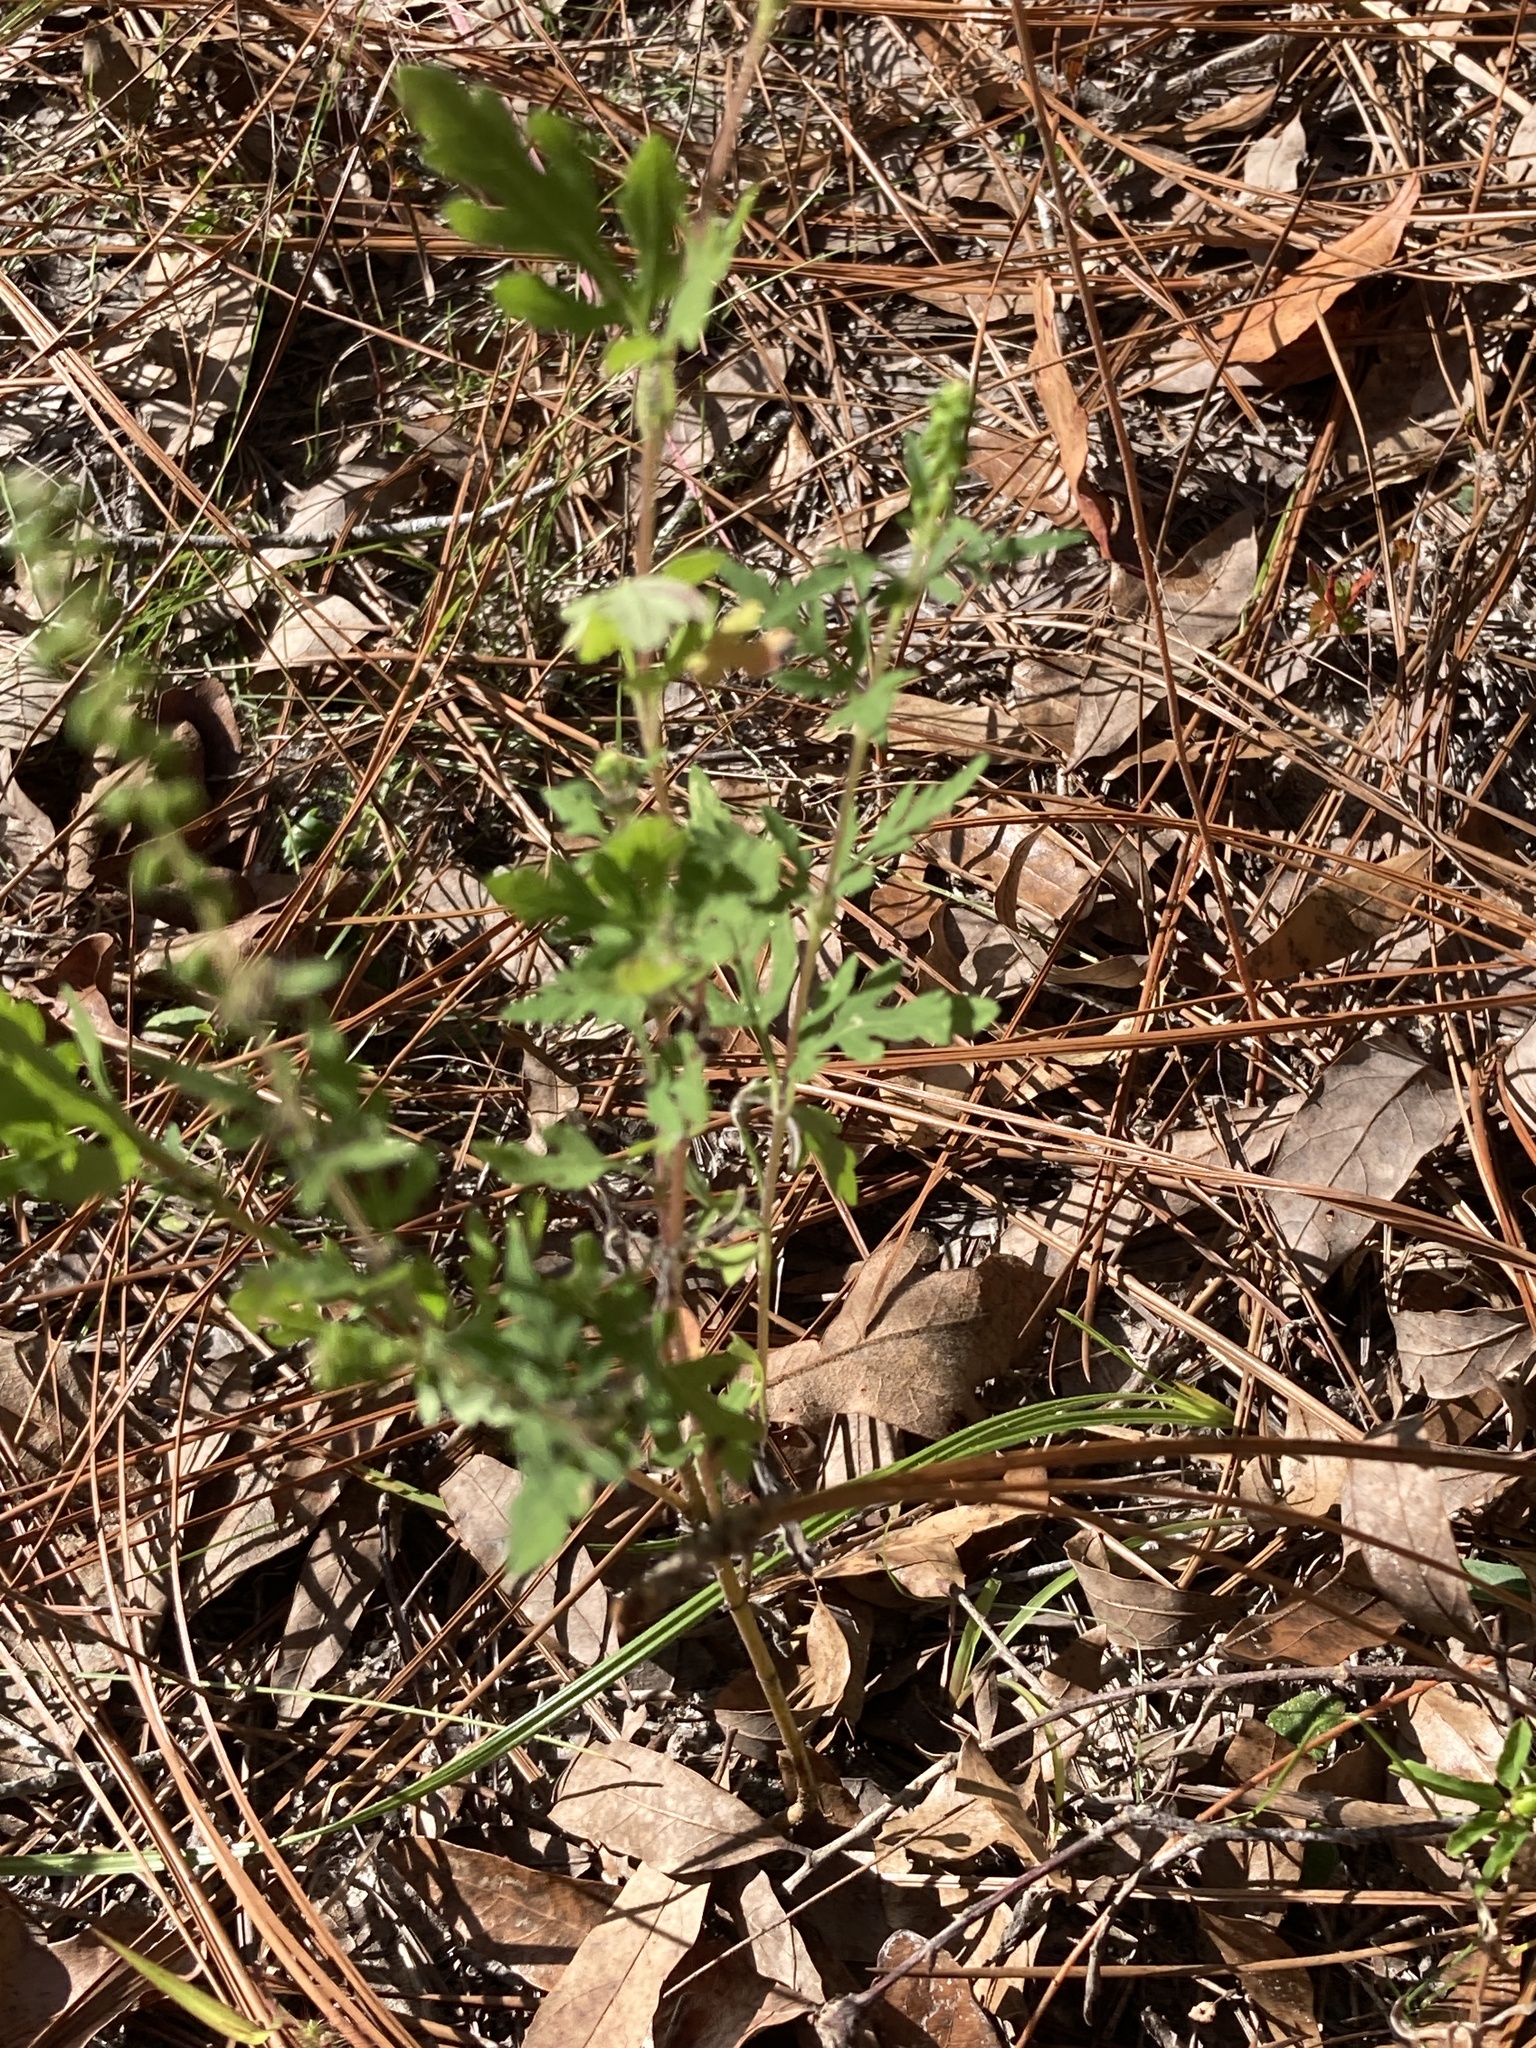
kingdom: Plantae
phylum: Tracheophyta
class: Magnoliopsida
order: Asterales
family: Asteraceae
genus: Ambrosia
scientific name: Ambrosia artemisiifolia
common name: Annual ragweed
